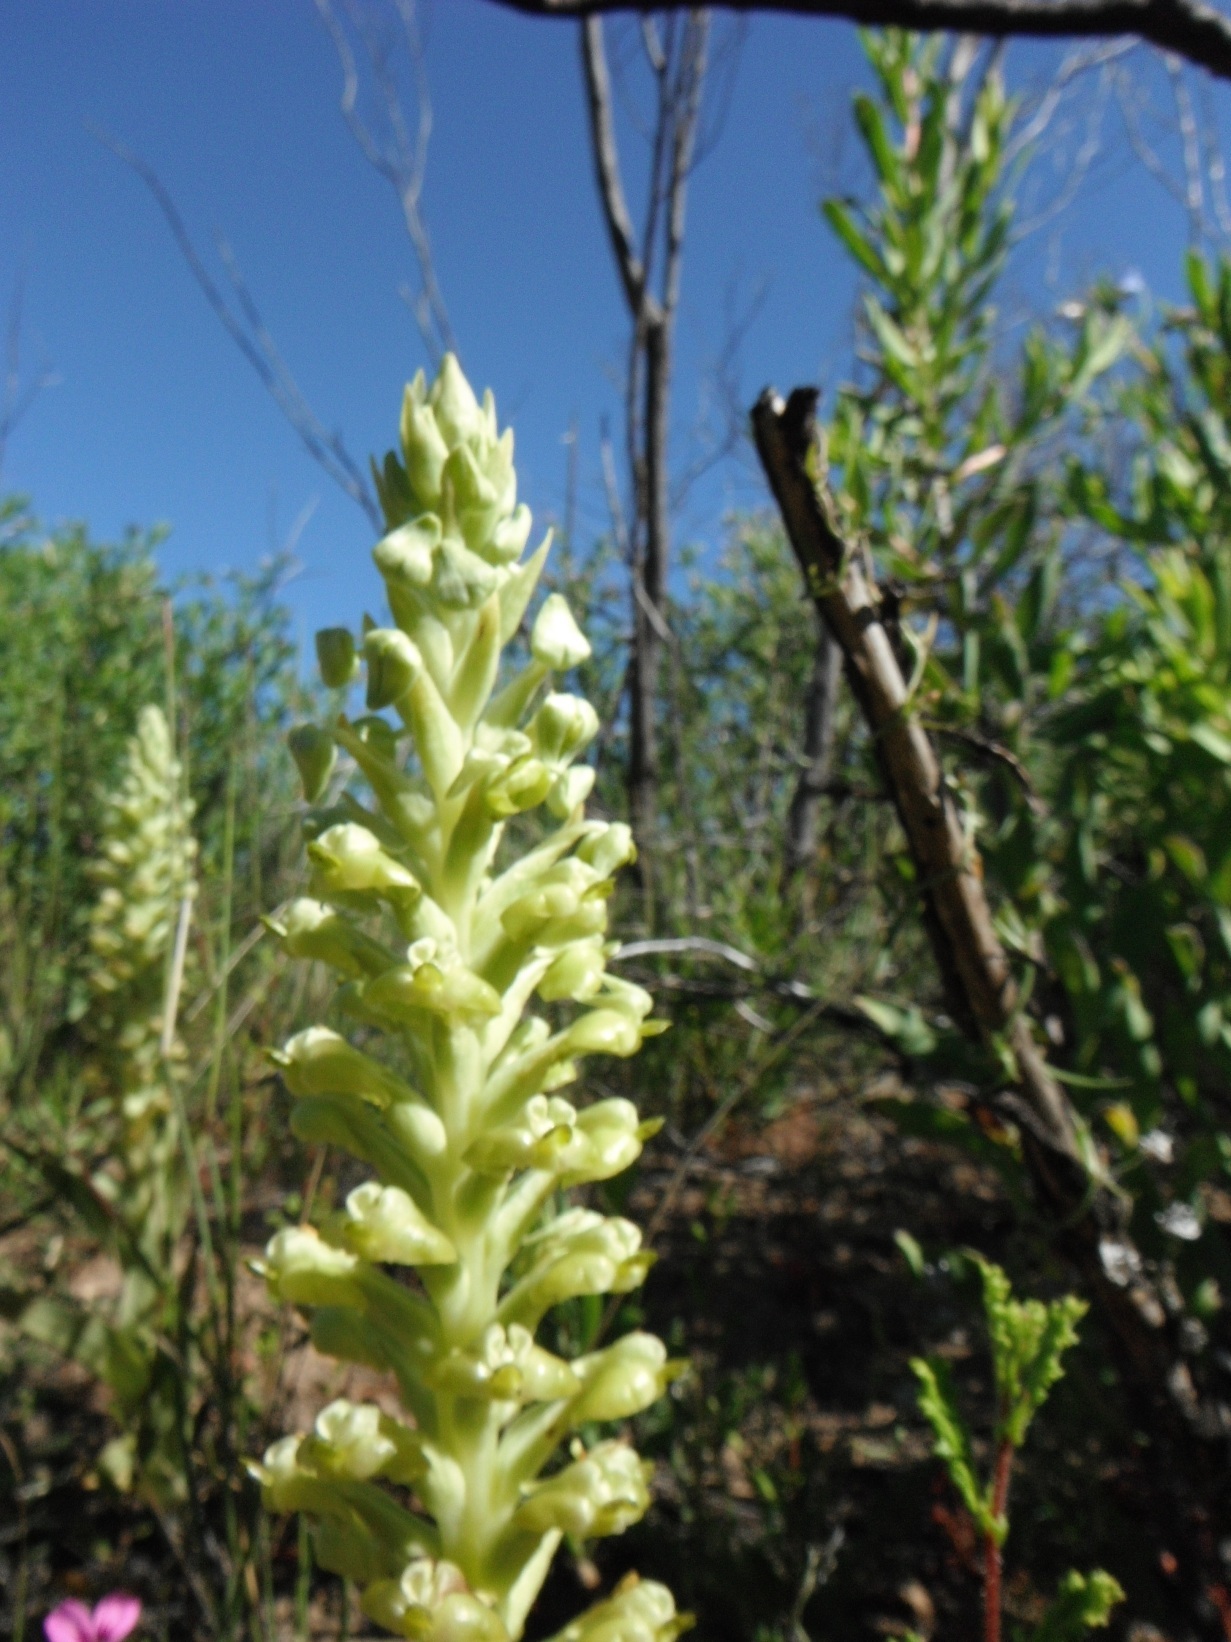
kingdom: Plantae
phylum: Tracheophyta
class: Liliopsida
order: Asparagales
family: Orchidaceae
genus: Pterygodium
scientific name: Pterygodium inversum
